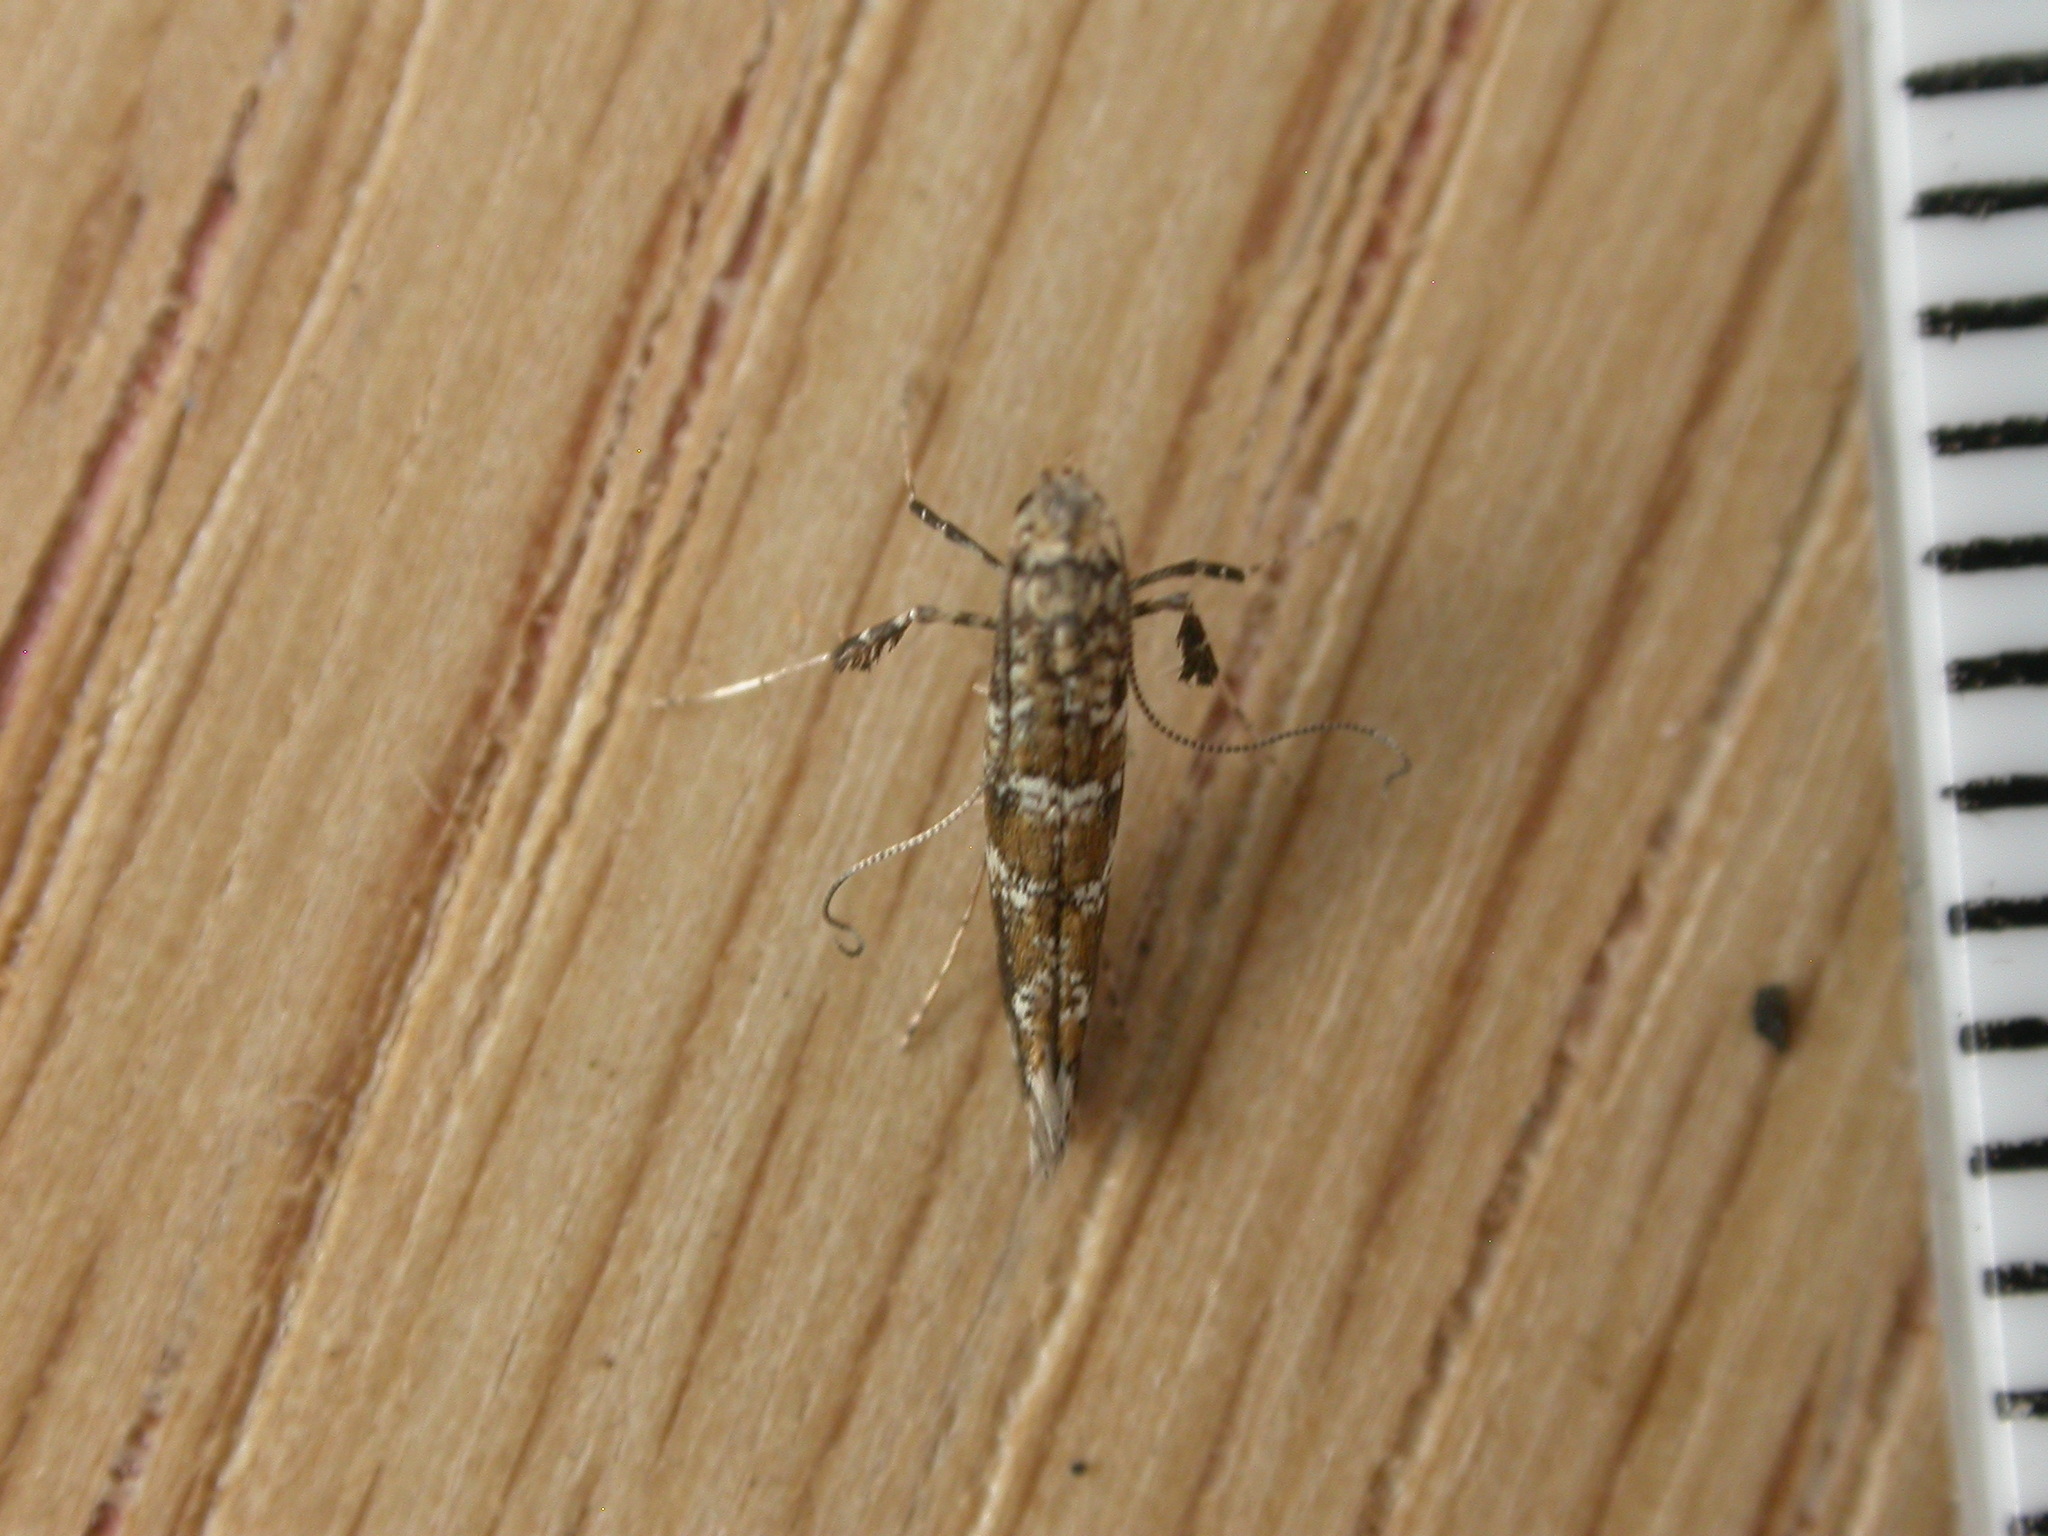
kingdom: Animalia
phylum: Arthropoda
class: Insecta
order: Lepidoptera
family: Gracillariidae
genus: Gracillaria
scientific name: Gracillaria syringella
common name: Common slender
